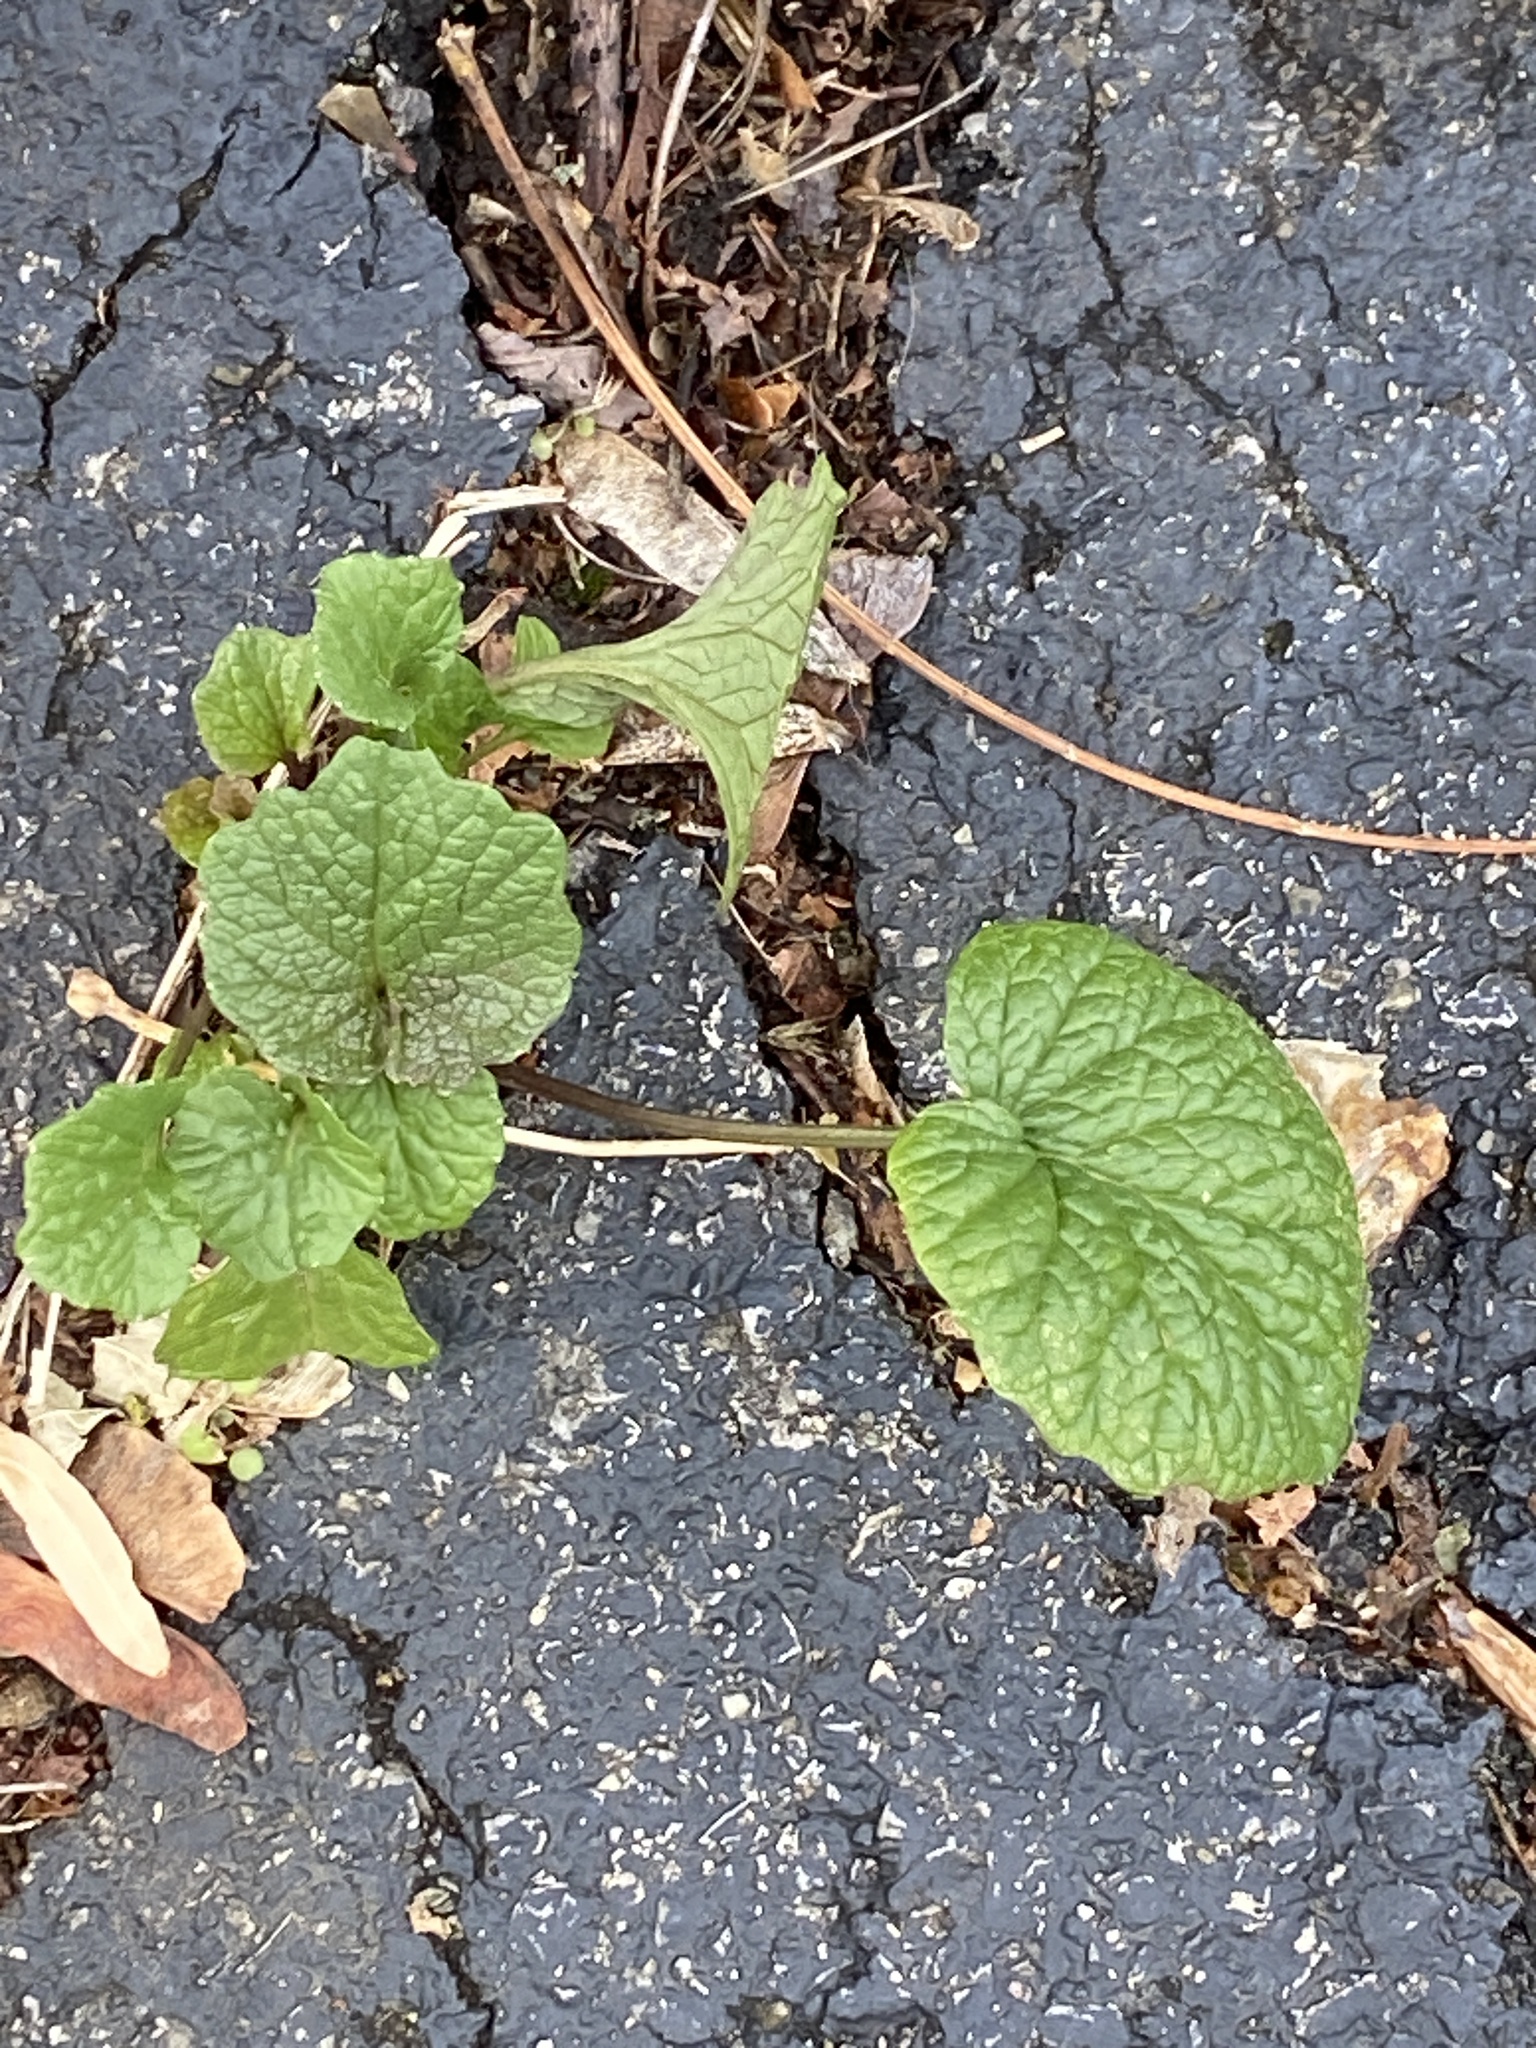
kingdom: Plantae
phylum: Tracheophyta
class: Magnoliopsida
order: Brassicales
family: Brassicaceae
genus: Alliaria
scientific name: Alliaria petiolata
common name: Garlic mustard
